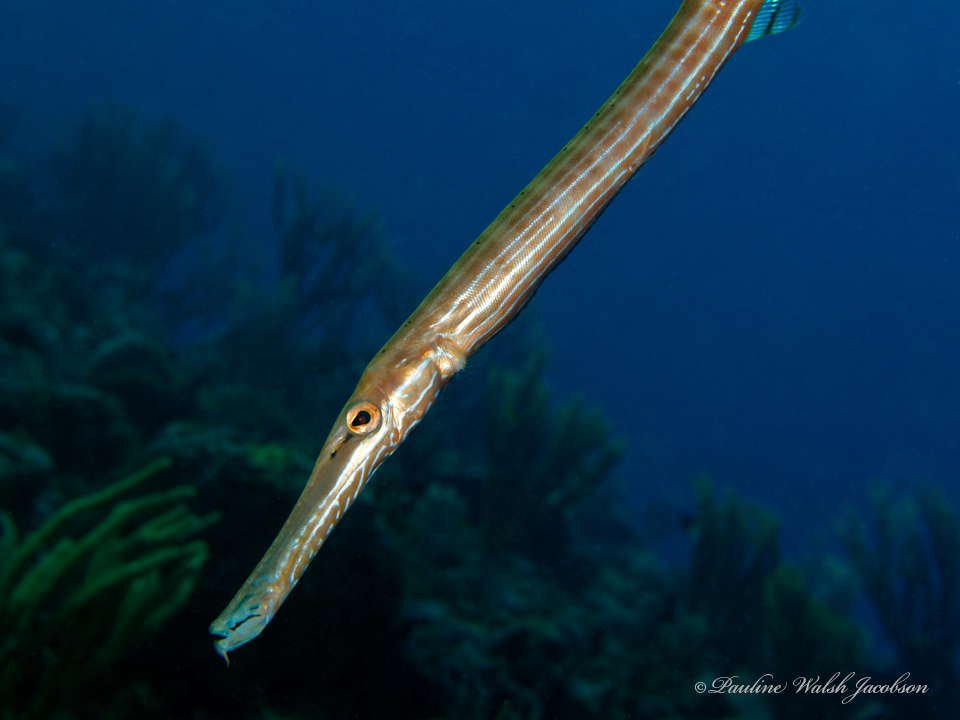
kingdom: Animalia
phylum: Chordata
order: Syngnathiformes
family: Aulostomidae
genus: Aulostomus
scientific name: Aulostomus maculatus
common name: West atlantic trumpetfish
